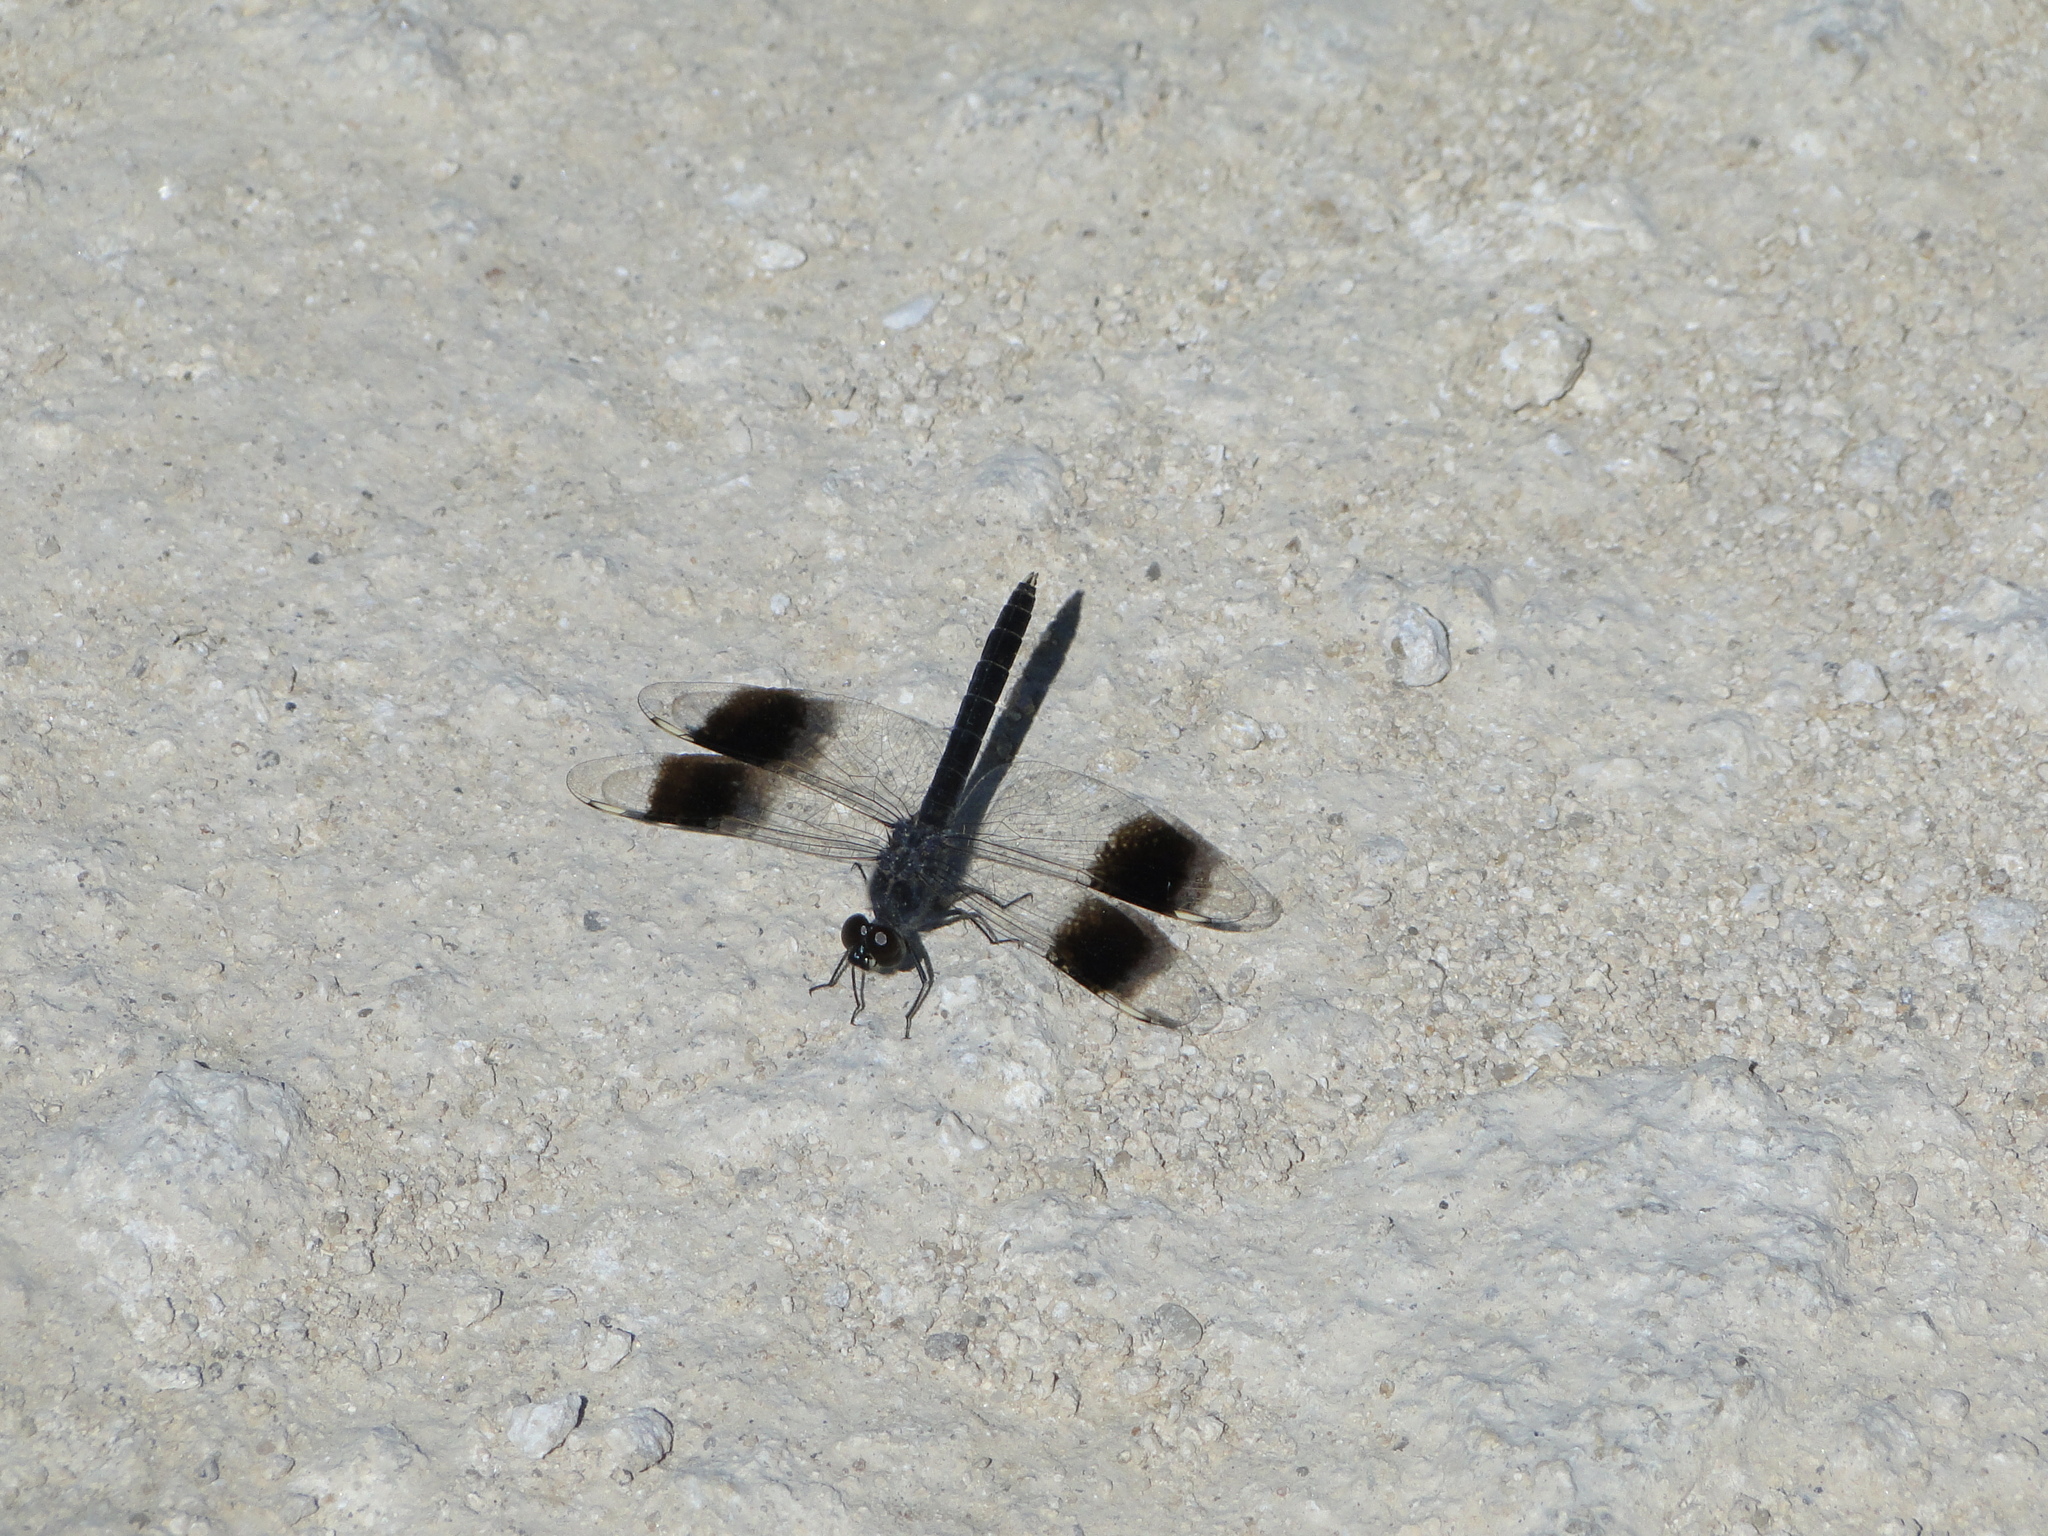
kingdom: Animalia
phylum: Arthropoda
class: Insecta
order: Odonata
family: Libellulidae
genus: Brachythemis
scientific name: Brachythemis impartita
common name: Banded groundling
